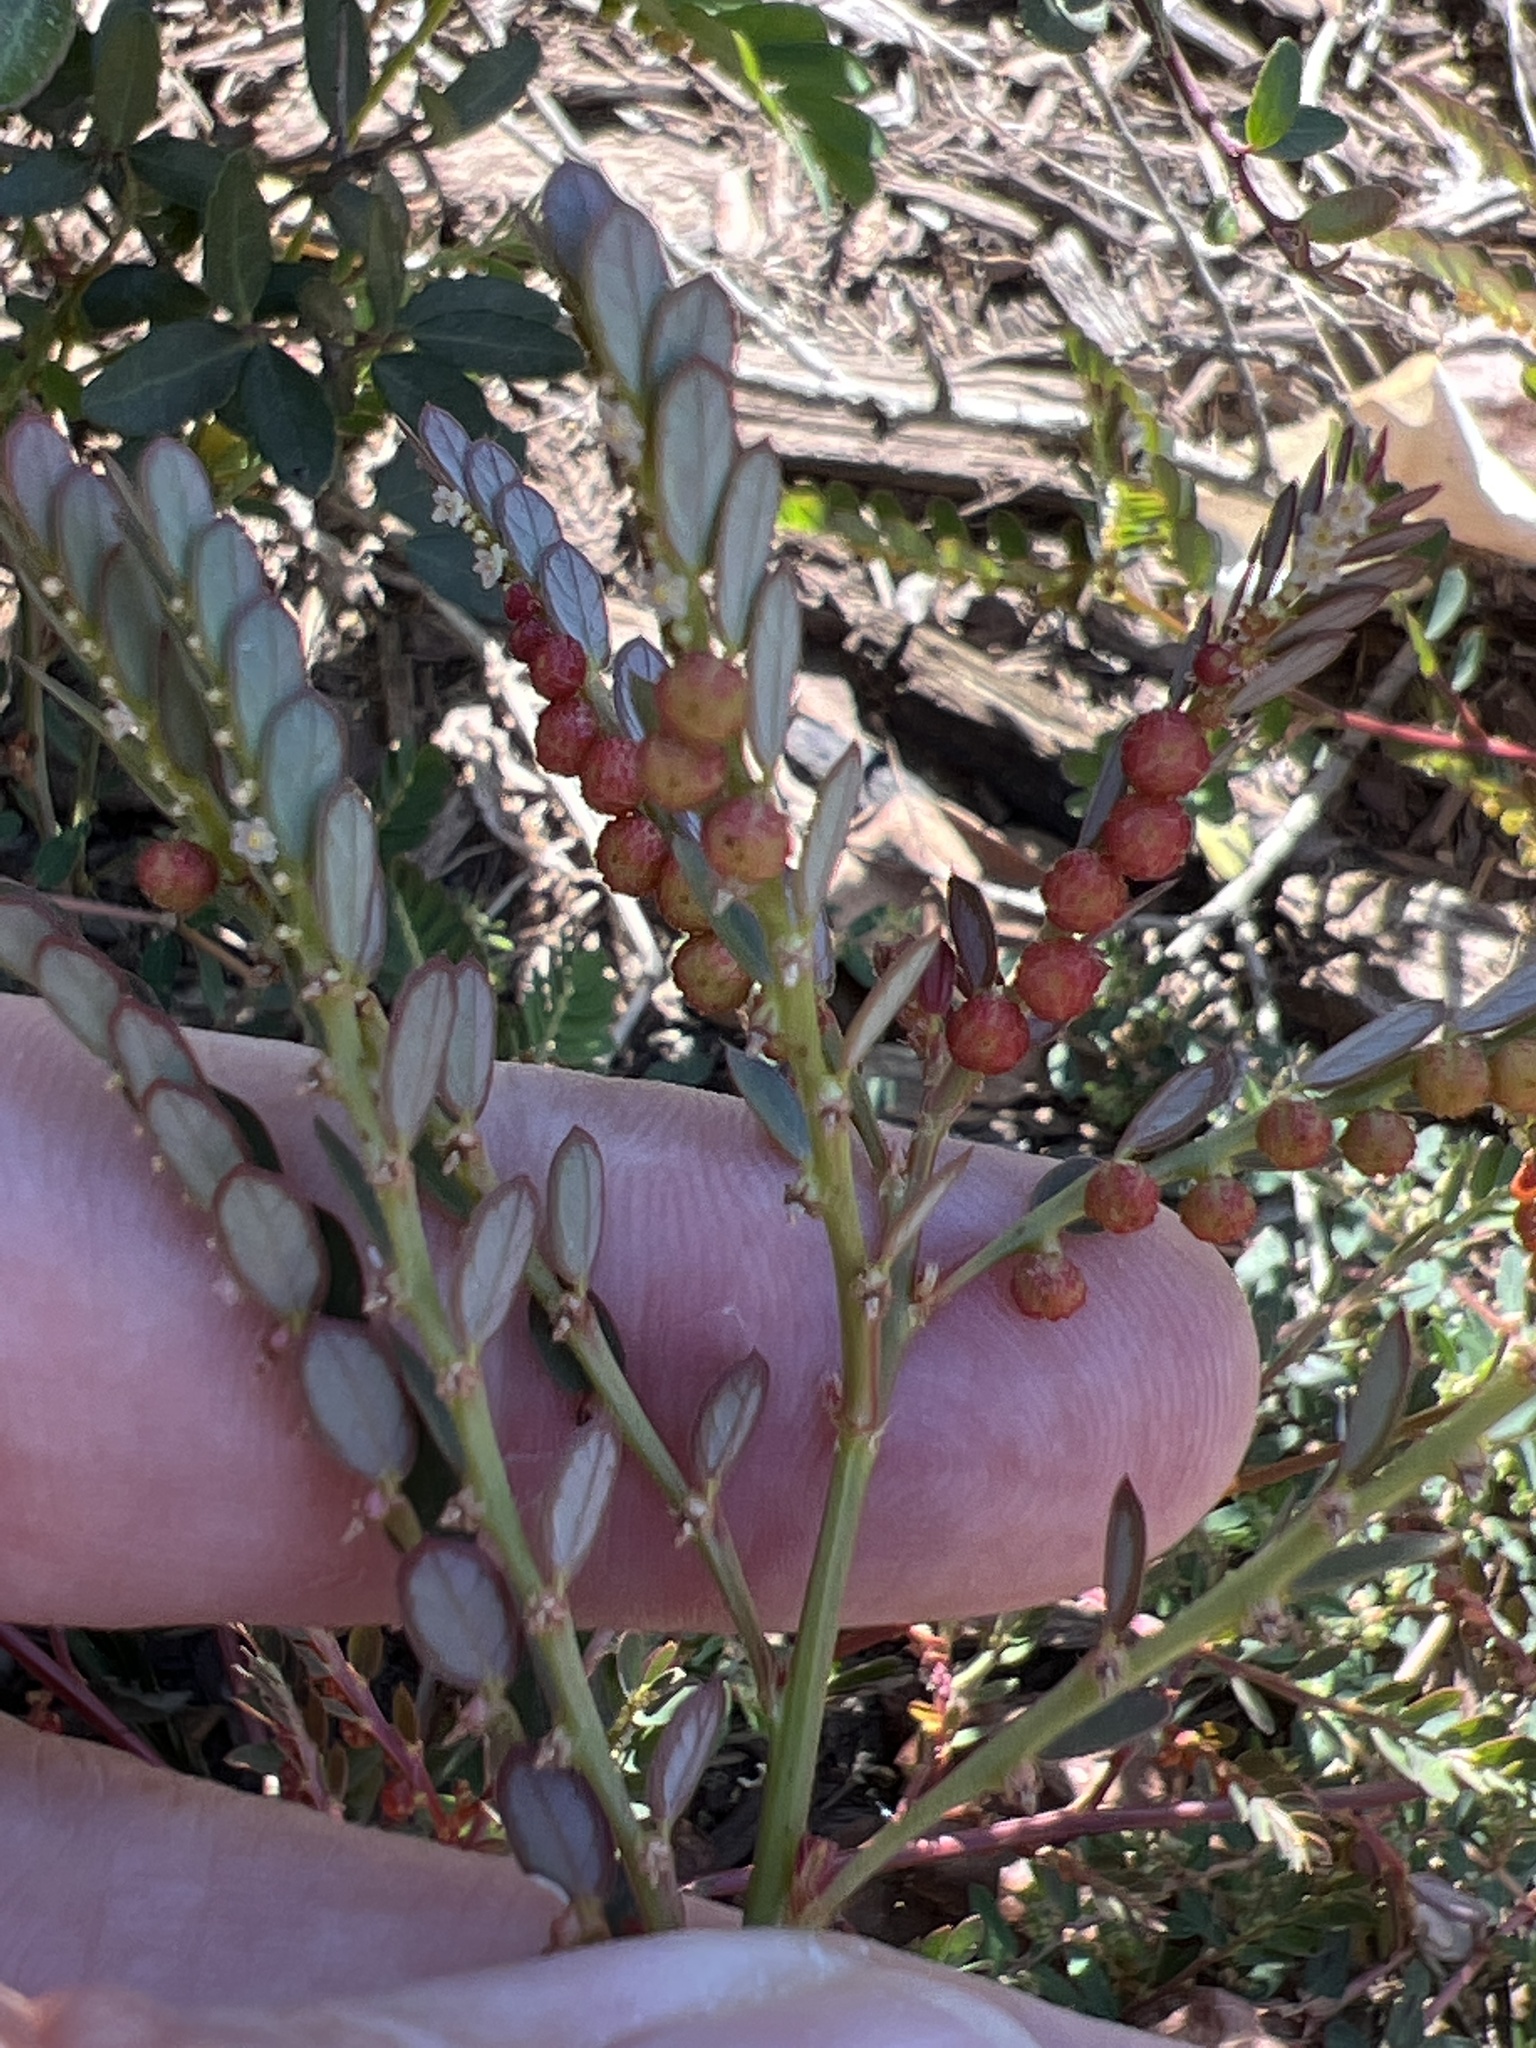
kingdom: Plantae
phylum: Tracheophyta
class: Magnoliopsida
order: Malpighiales
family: Phyllanthaceae
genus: Phyllanthus
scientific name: Phyllanthus urinaria
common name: Chamber bitter
